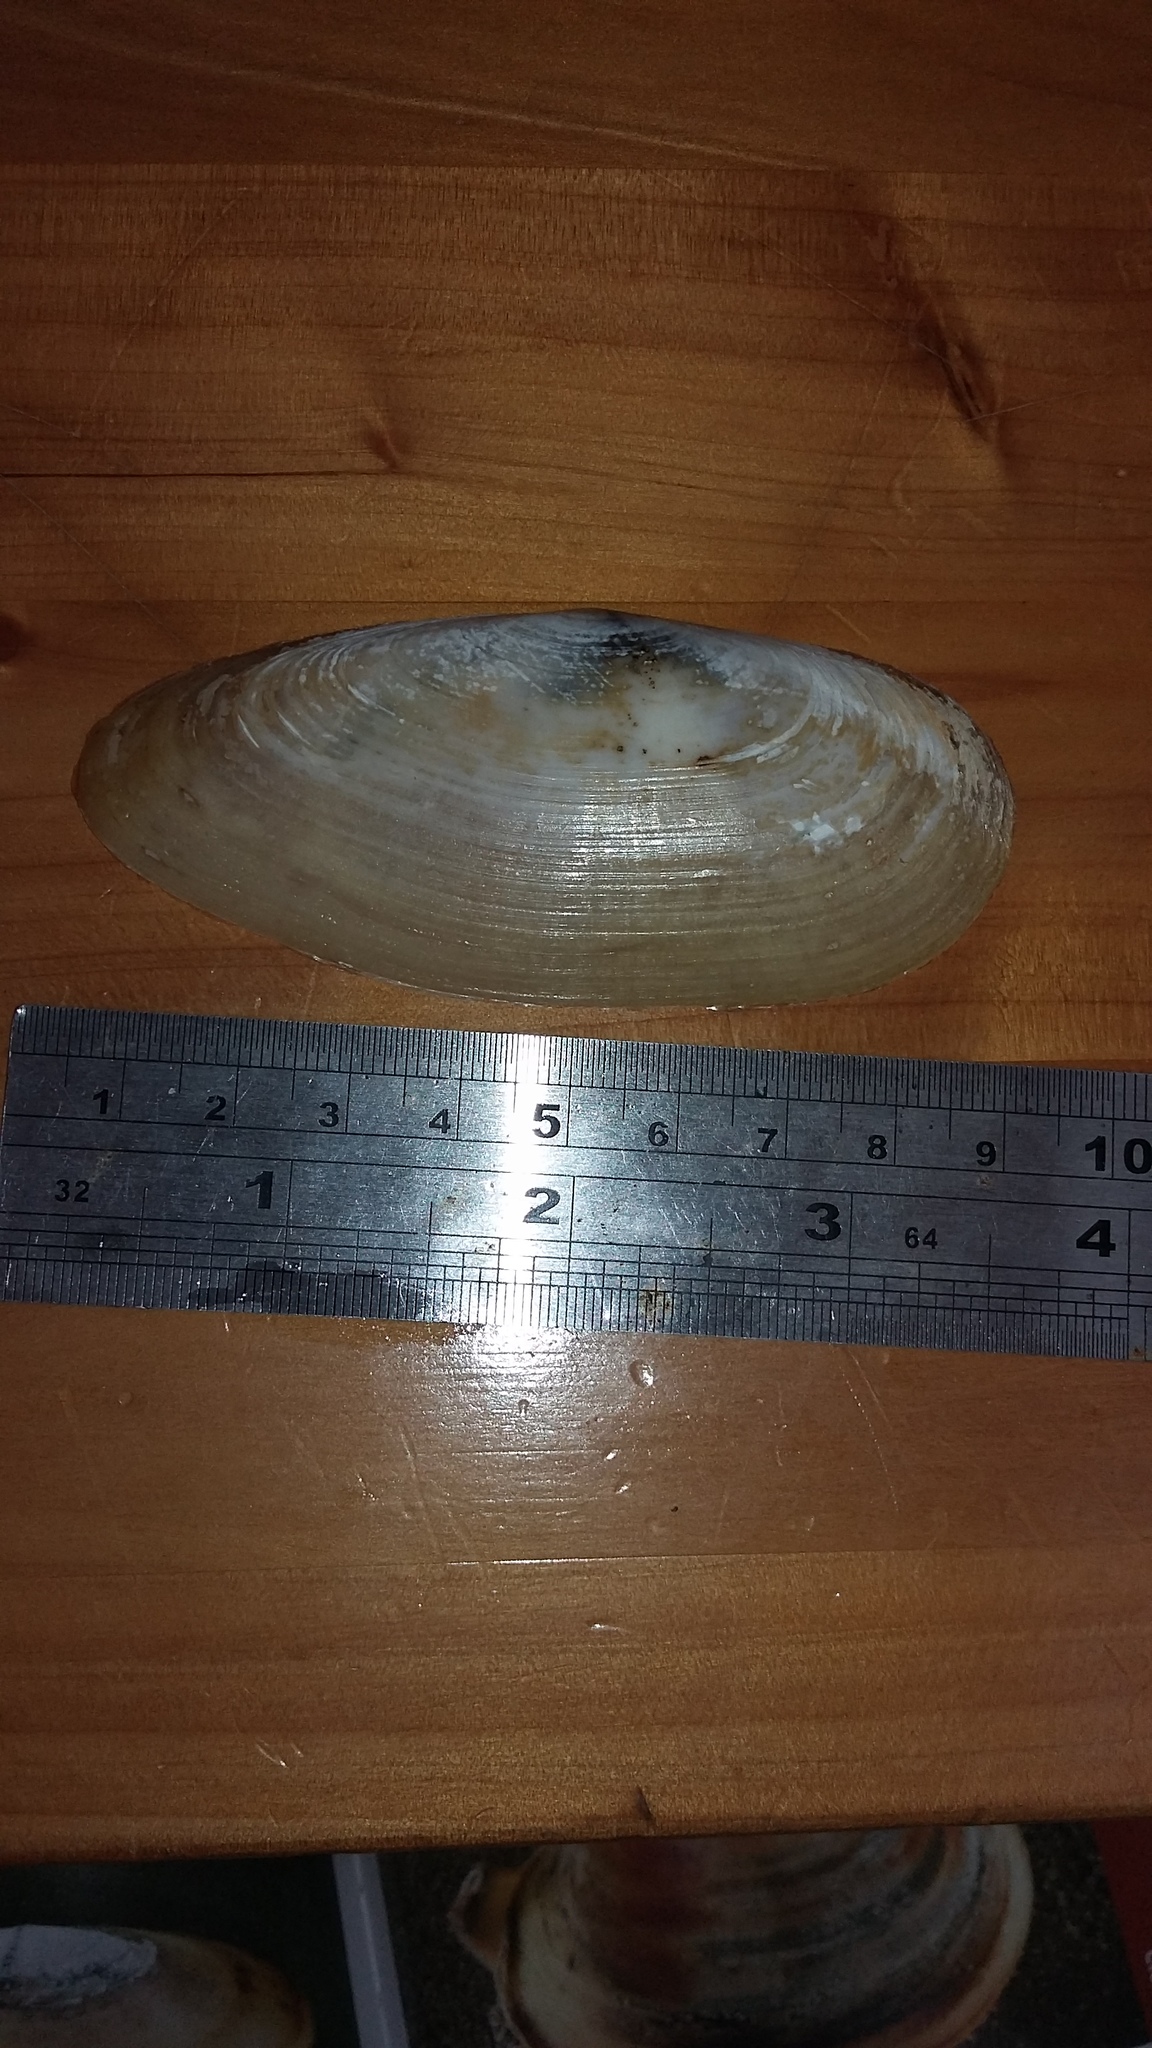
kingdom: Animalia
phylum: Mollusca
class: Bivalvia
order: Venerida
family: Mactridae
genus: Resania
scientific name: Resania lanceolata
